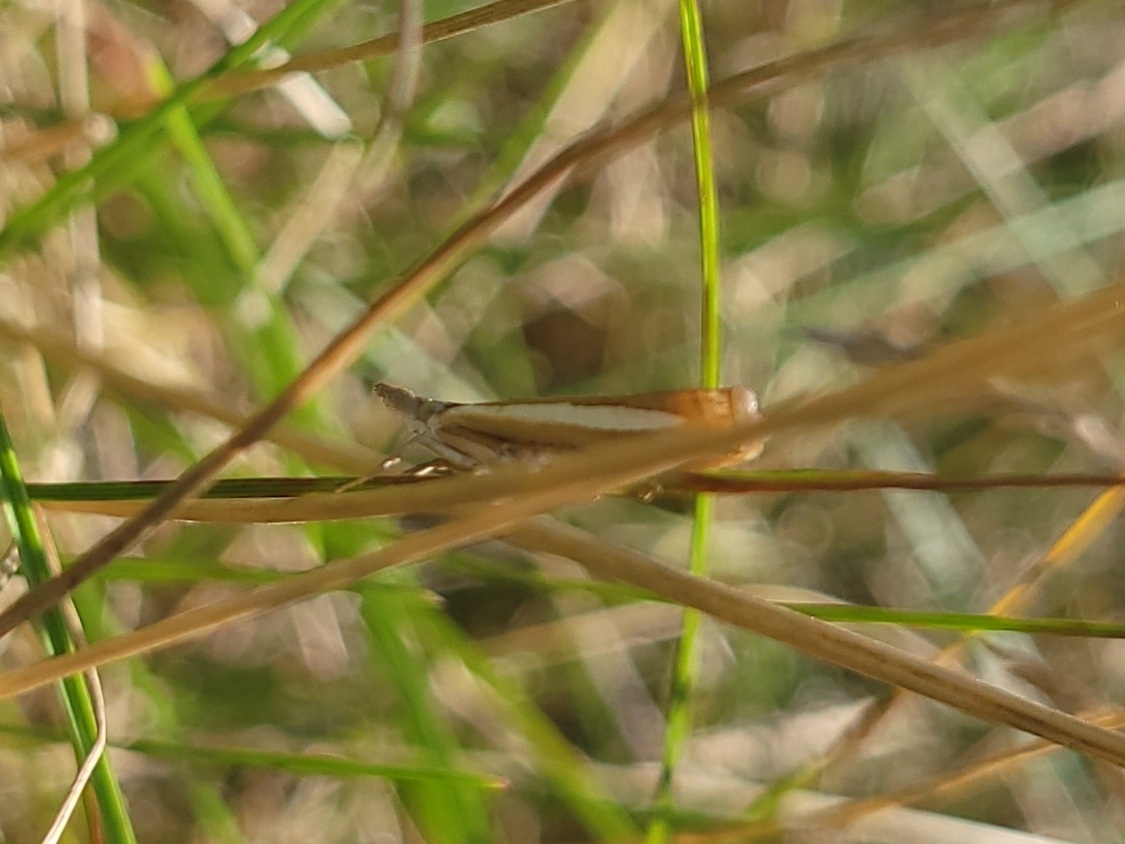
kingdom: Animalia
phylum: Arthropoda
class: Insecta
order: Lepidoptera
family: Crambidae
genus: Crambus
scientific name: Crambus praefectellus
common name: Common grass-veneer
